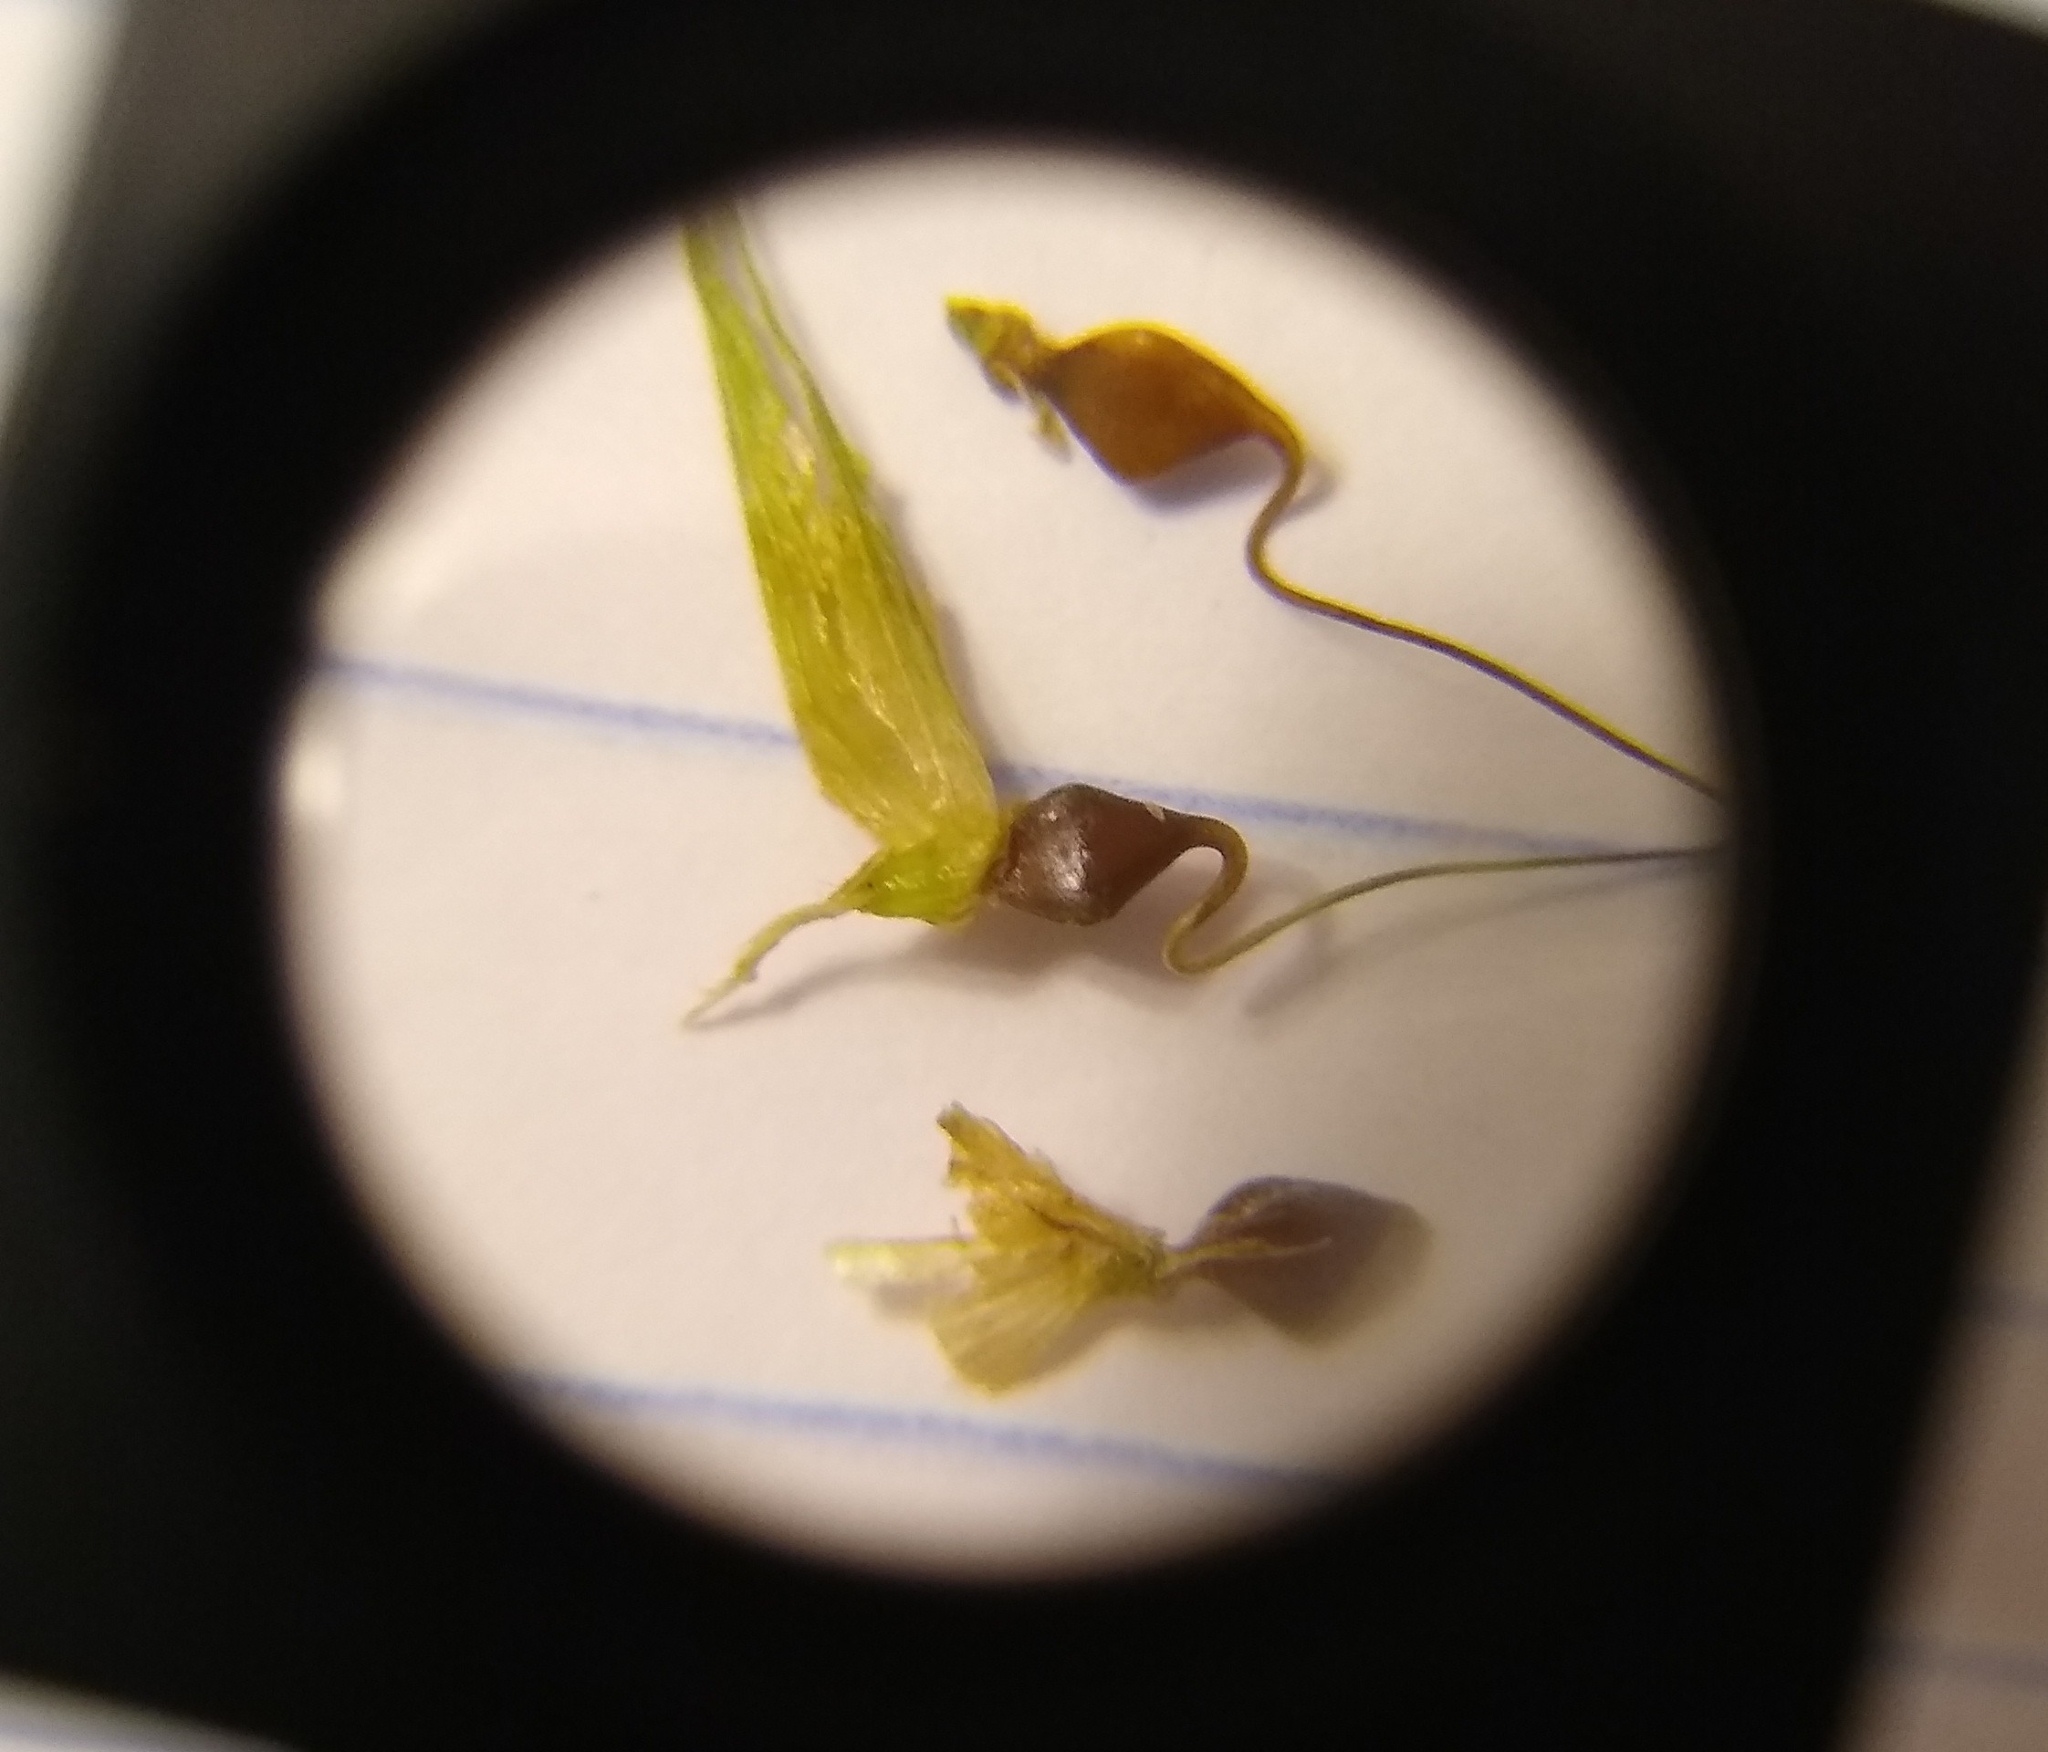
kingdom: Plantae
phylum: Tracheophyta
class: Liliopsida
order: Poales
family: Cyperaceae
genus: Carex
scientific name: Carex lupulina
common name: Hop sedge
